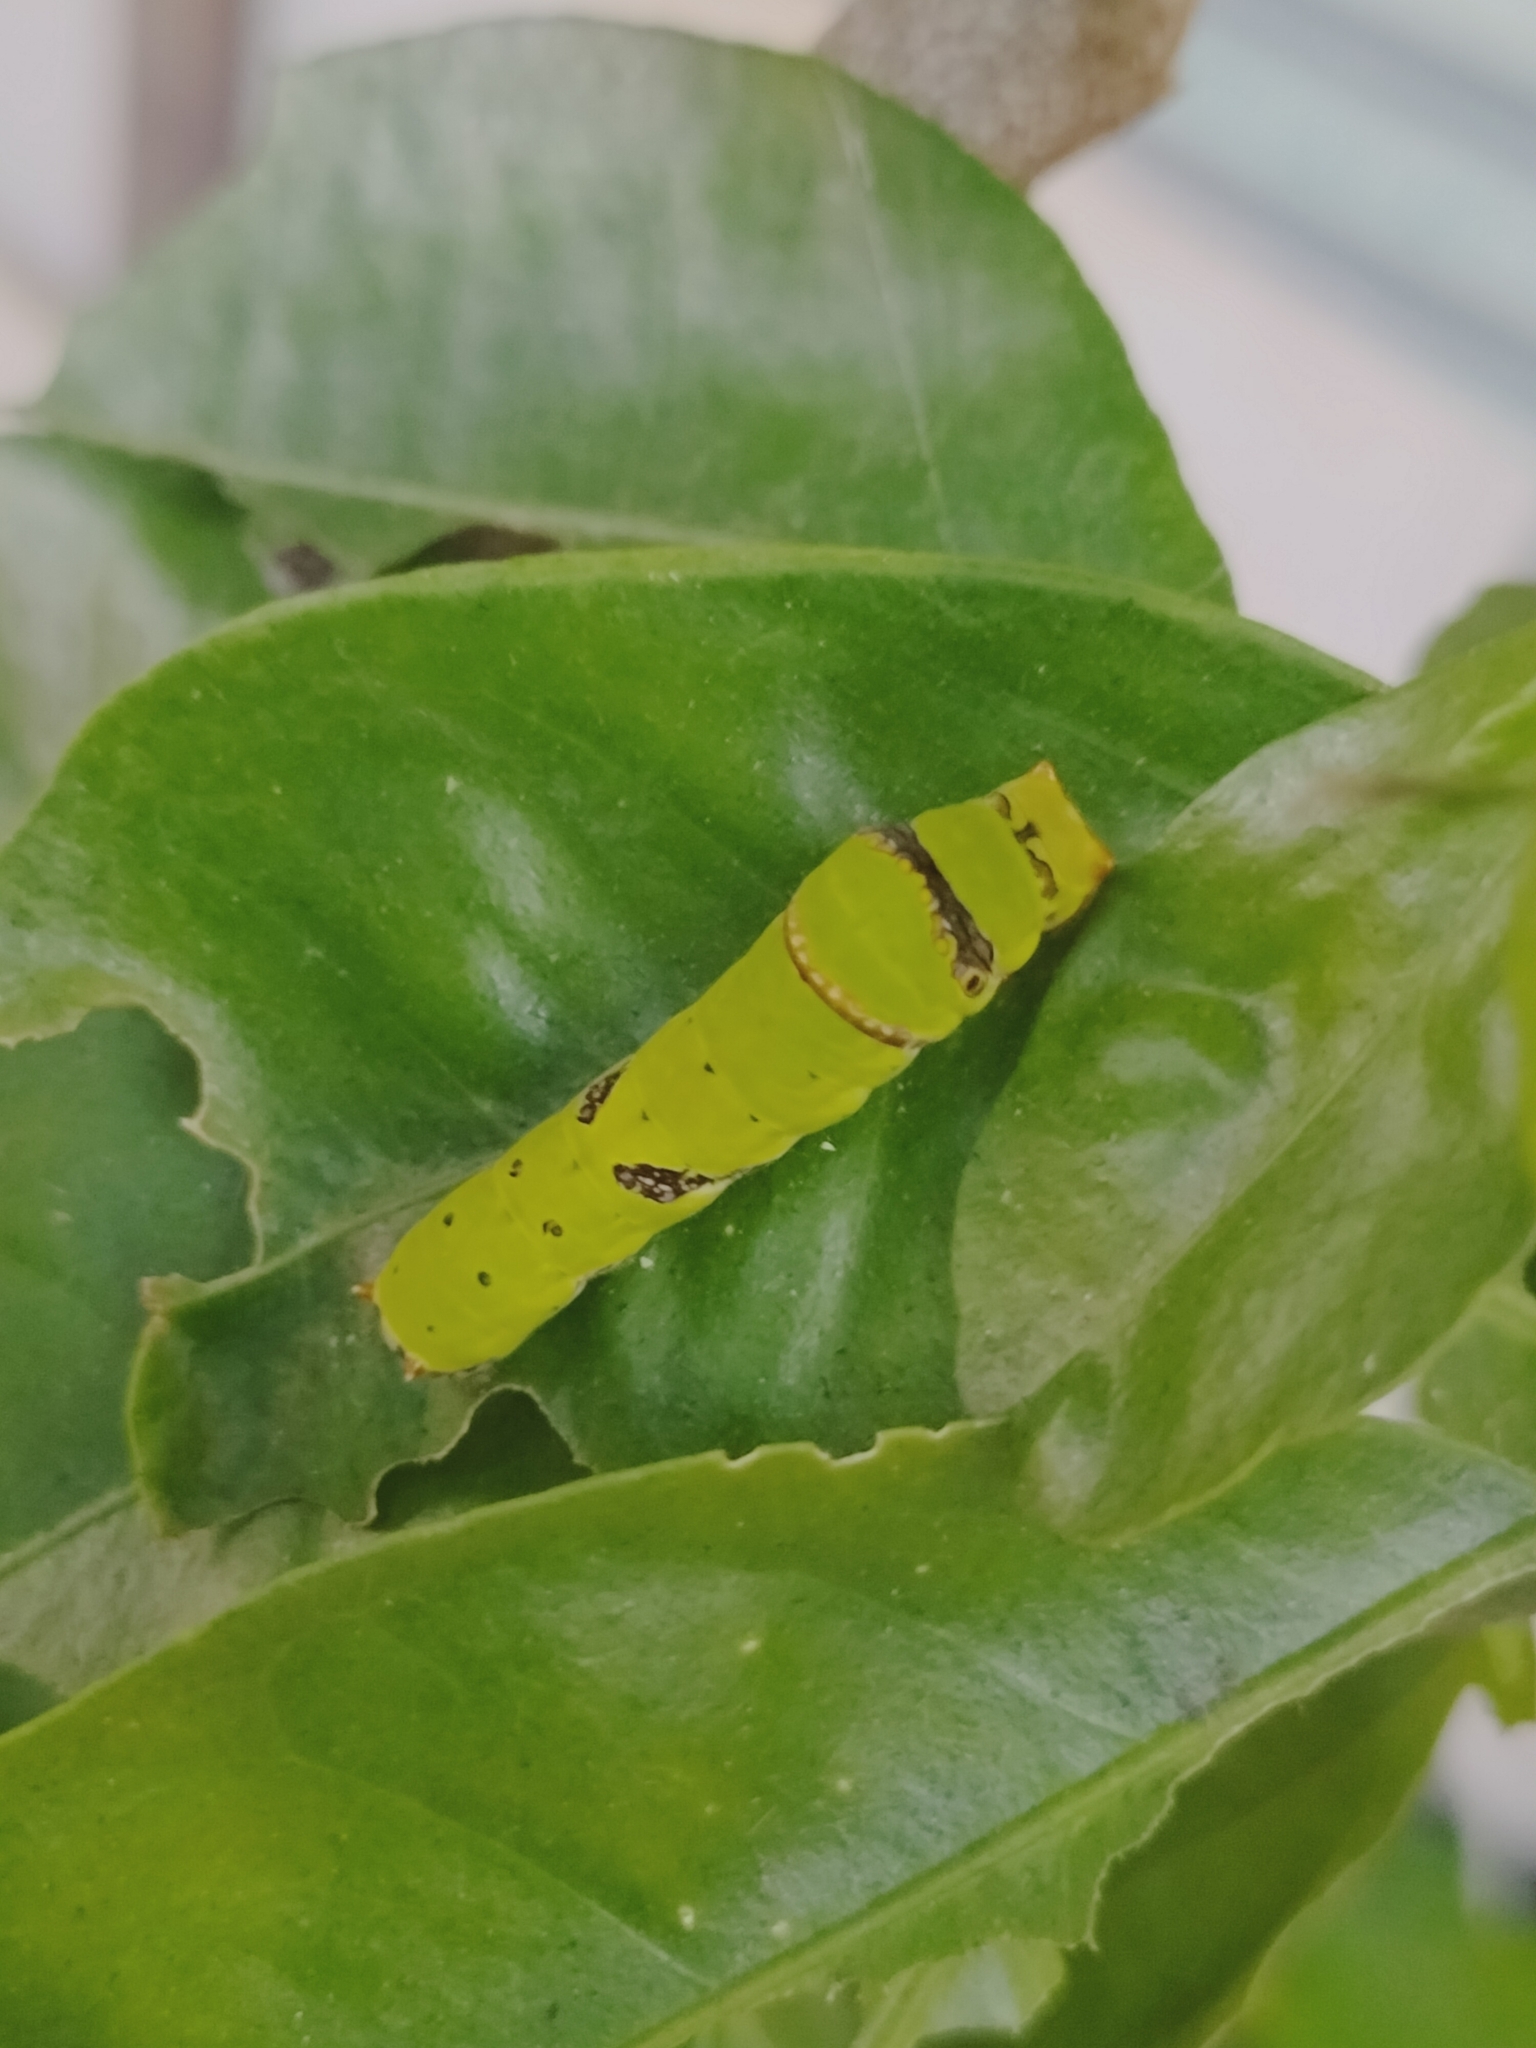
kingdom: Animalia
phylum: Arthropoda
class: Insecta
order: Lepidoptera
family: Papilionidae
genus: Papilio
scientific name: Papilio demoleus
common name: Lime butterfly
